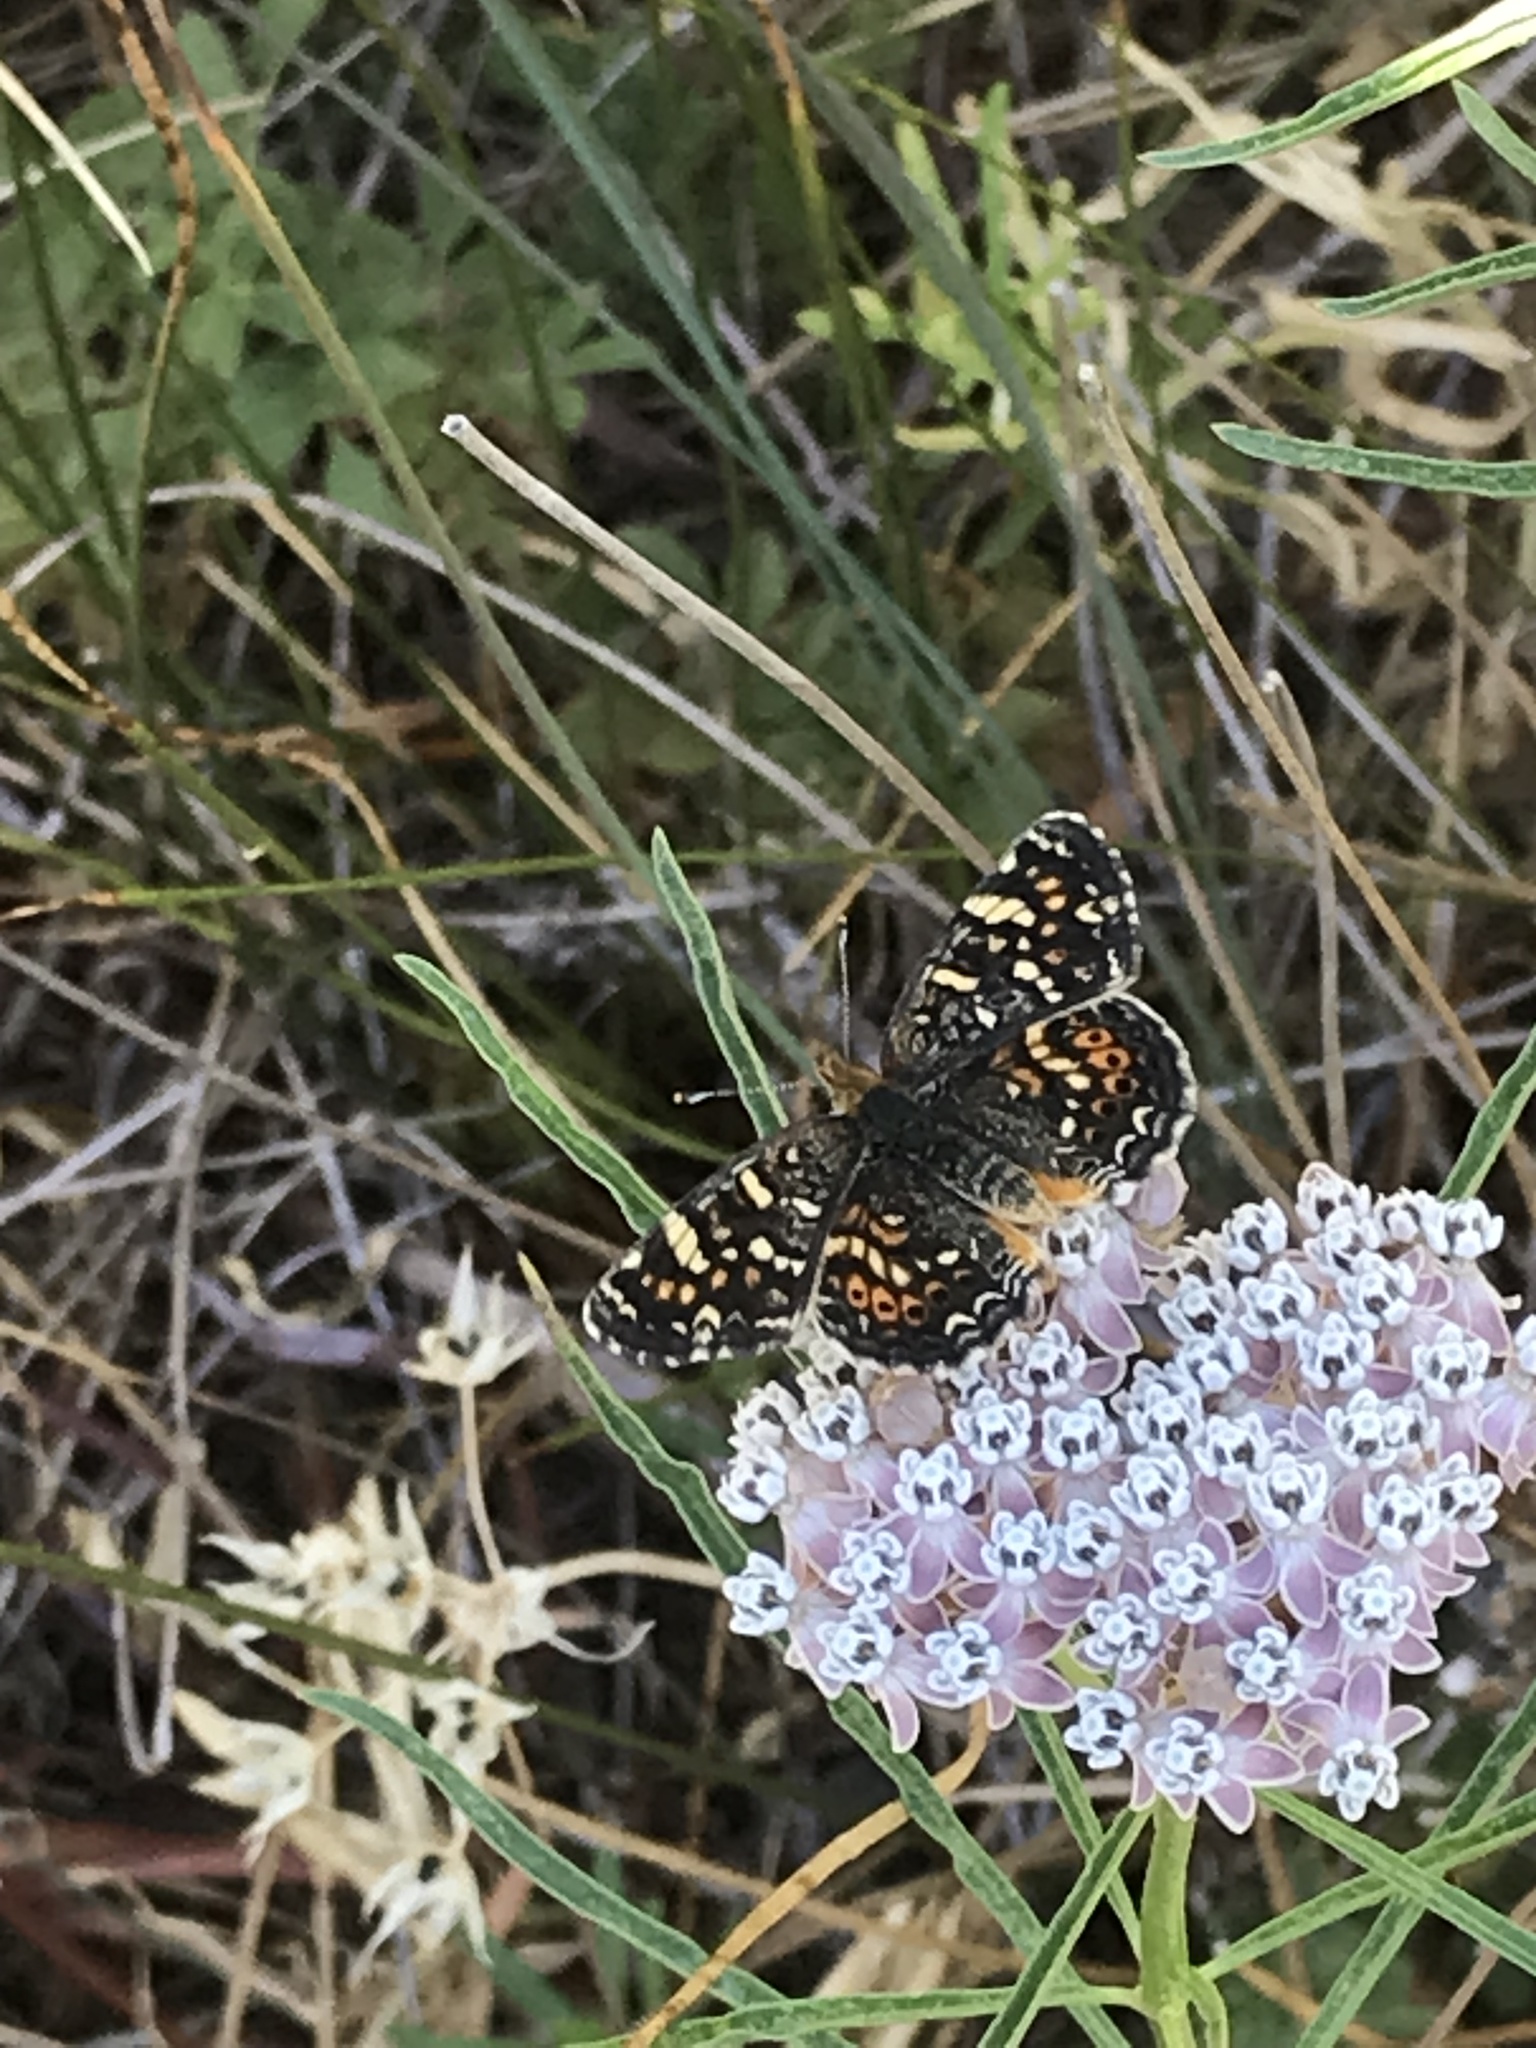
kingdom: Animalia
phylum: Arthropoda
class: Insecta
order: Lepidoptera
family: Nymphalidae
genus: Phyciodes
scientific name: Phyciodes tharos
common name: Pearl crescent
